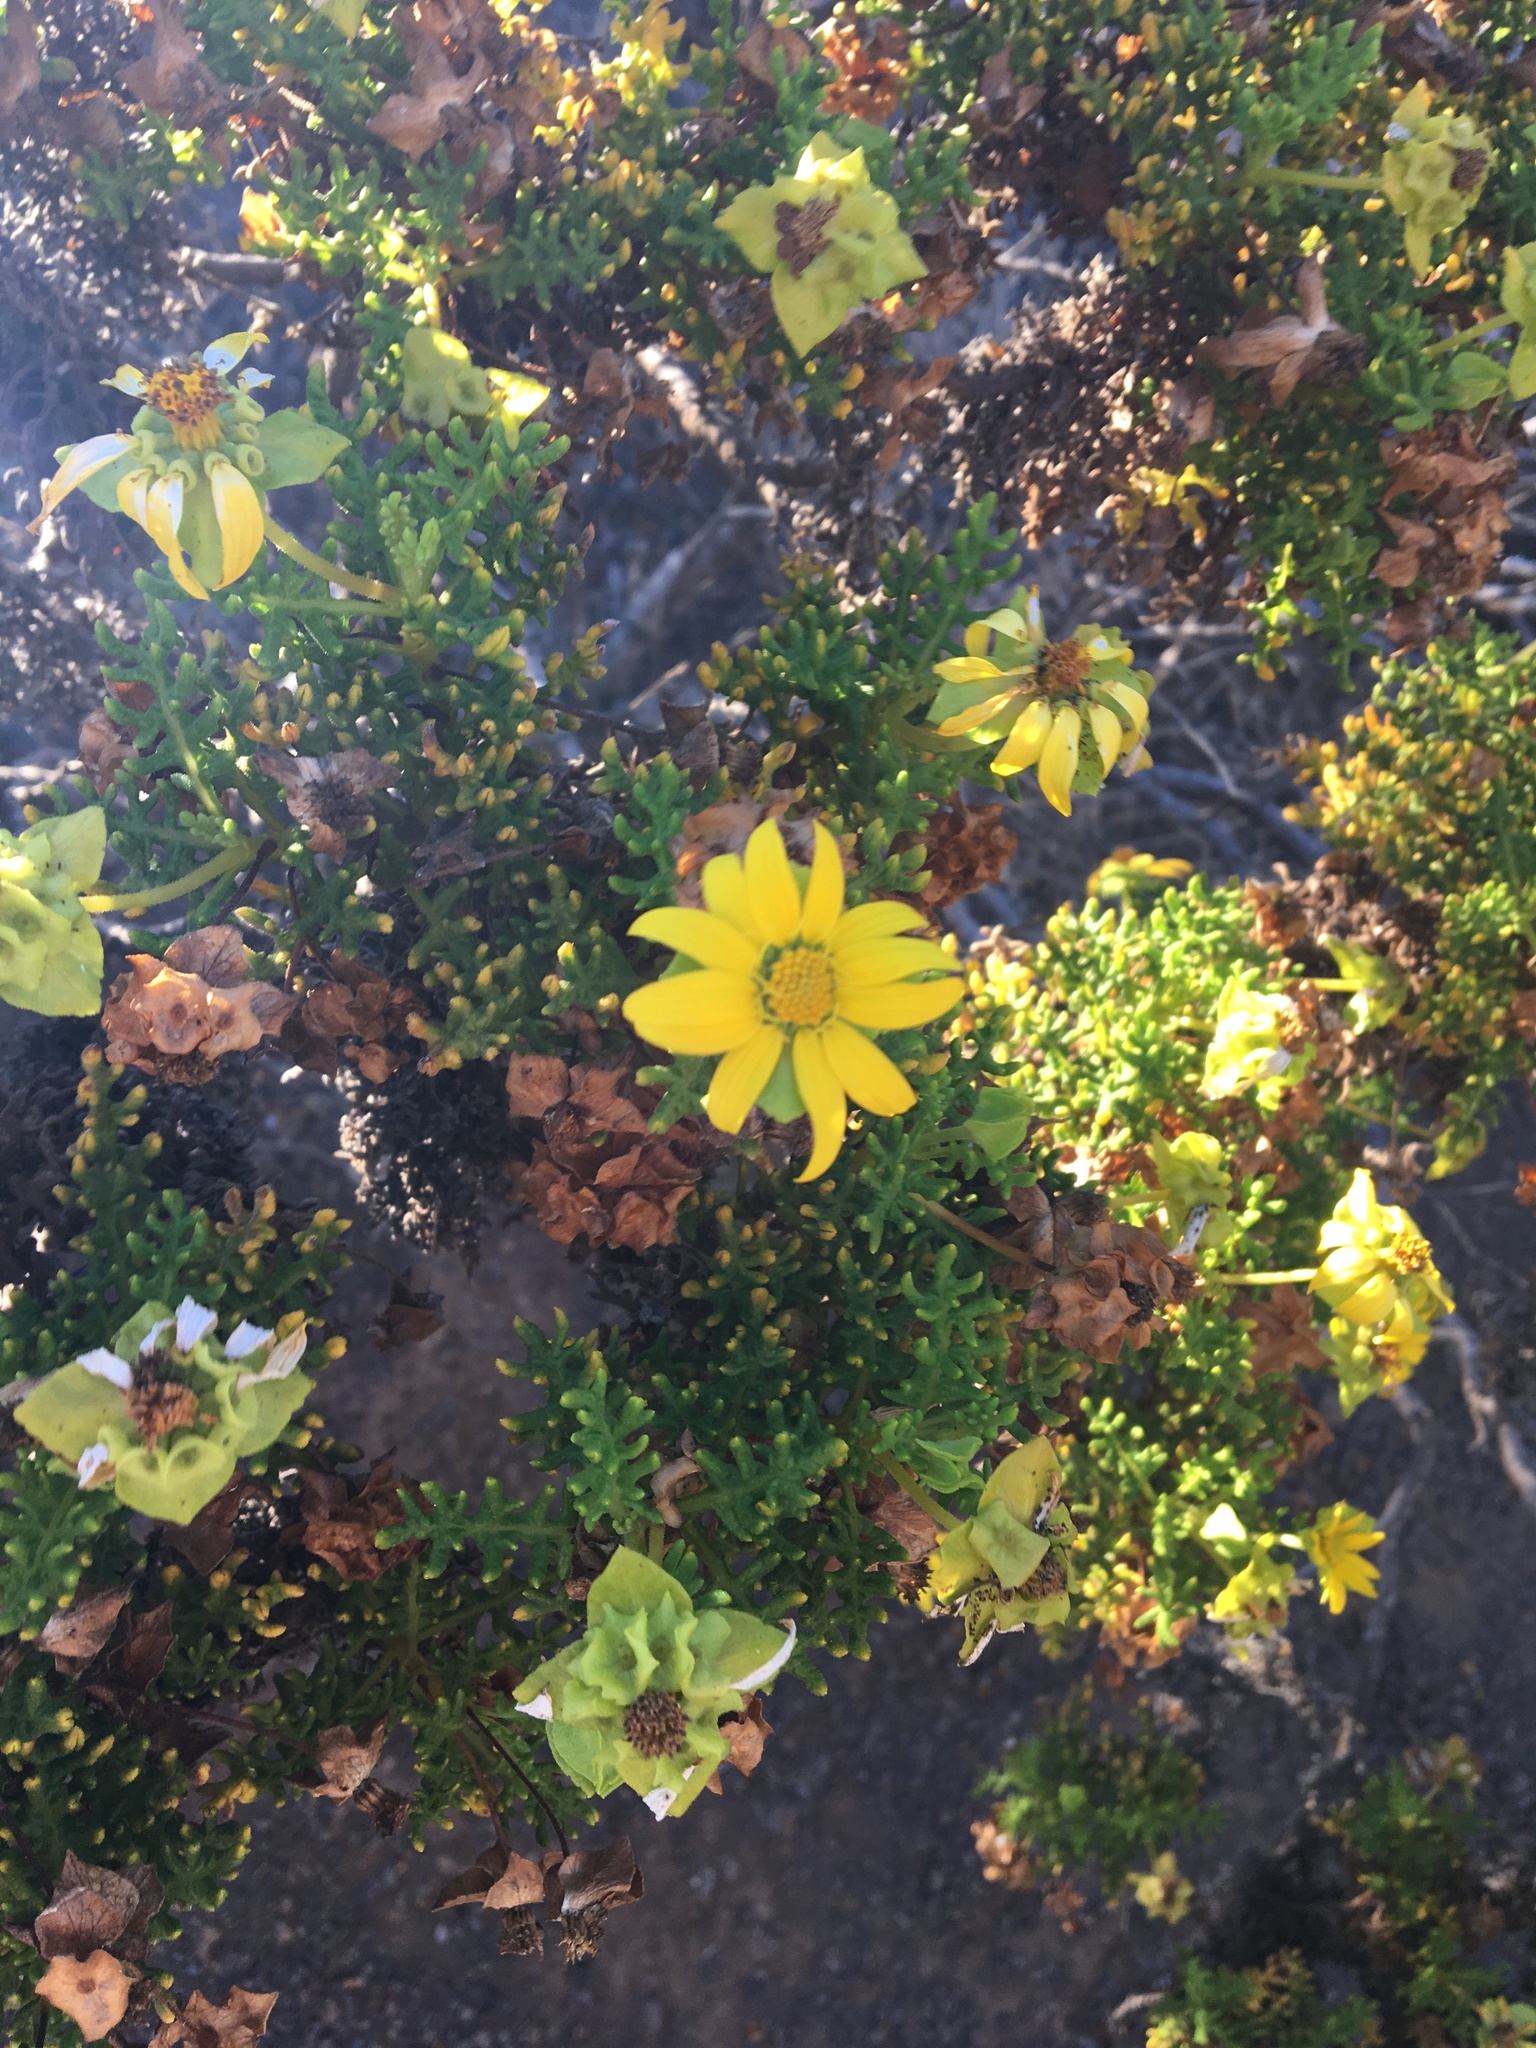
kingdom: Plantae
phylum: Tracheophyta
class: Magnoliopsida
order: Asterales
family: Asteraceae
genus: Lecocarpus
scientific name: Lecocarpus pinnatifidus
